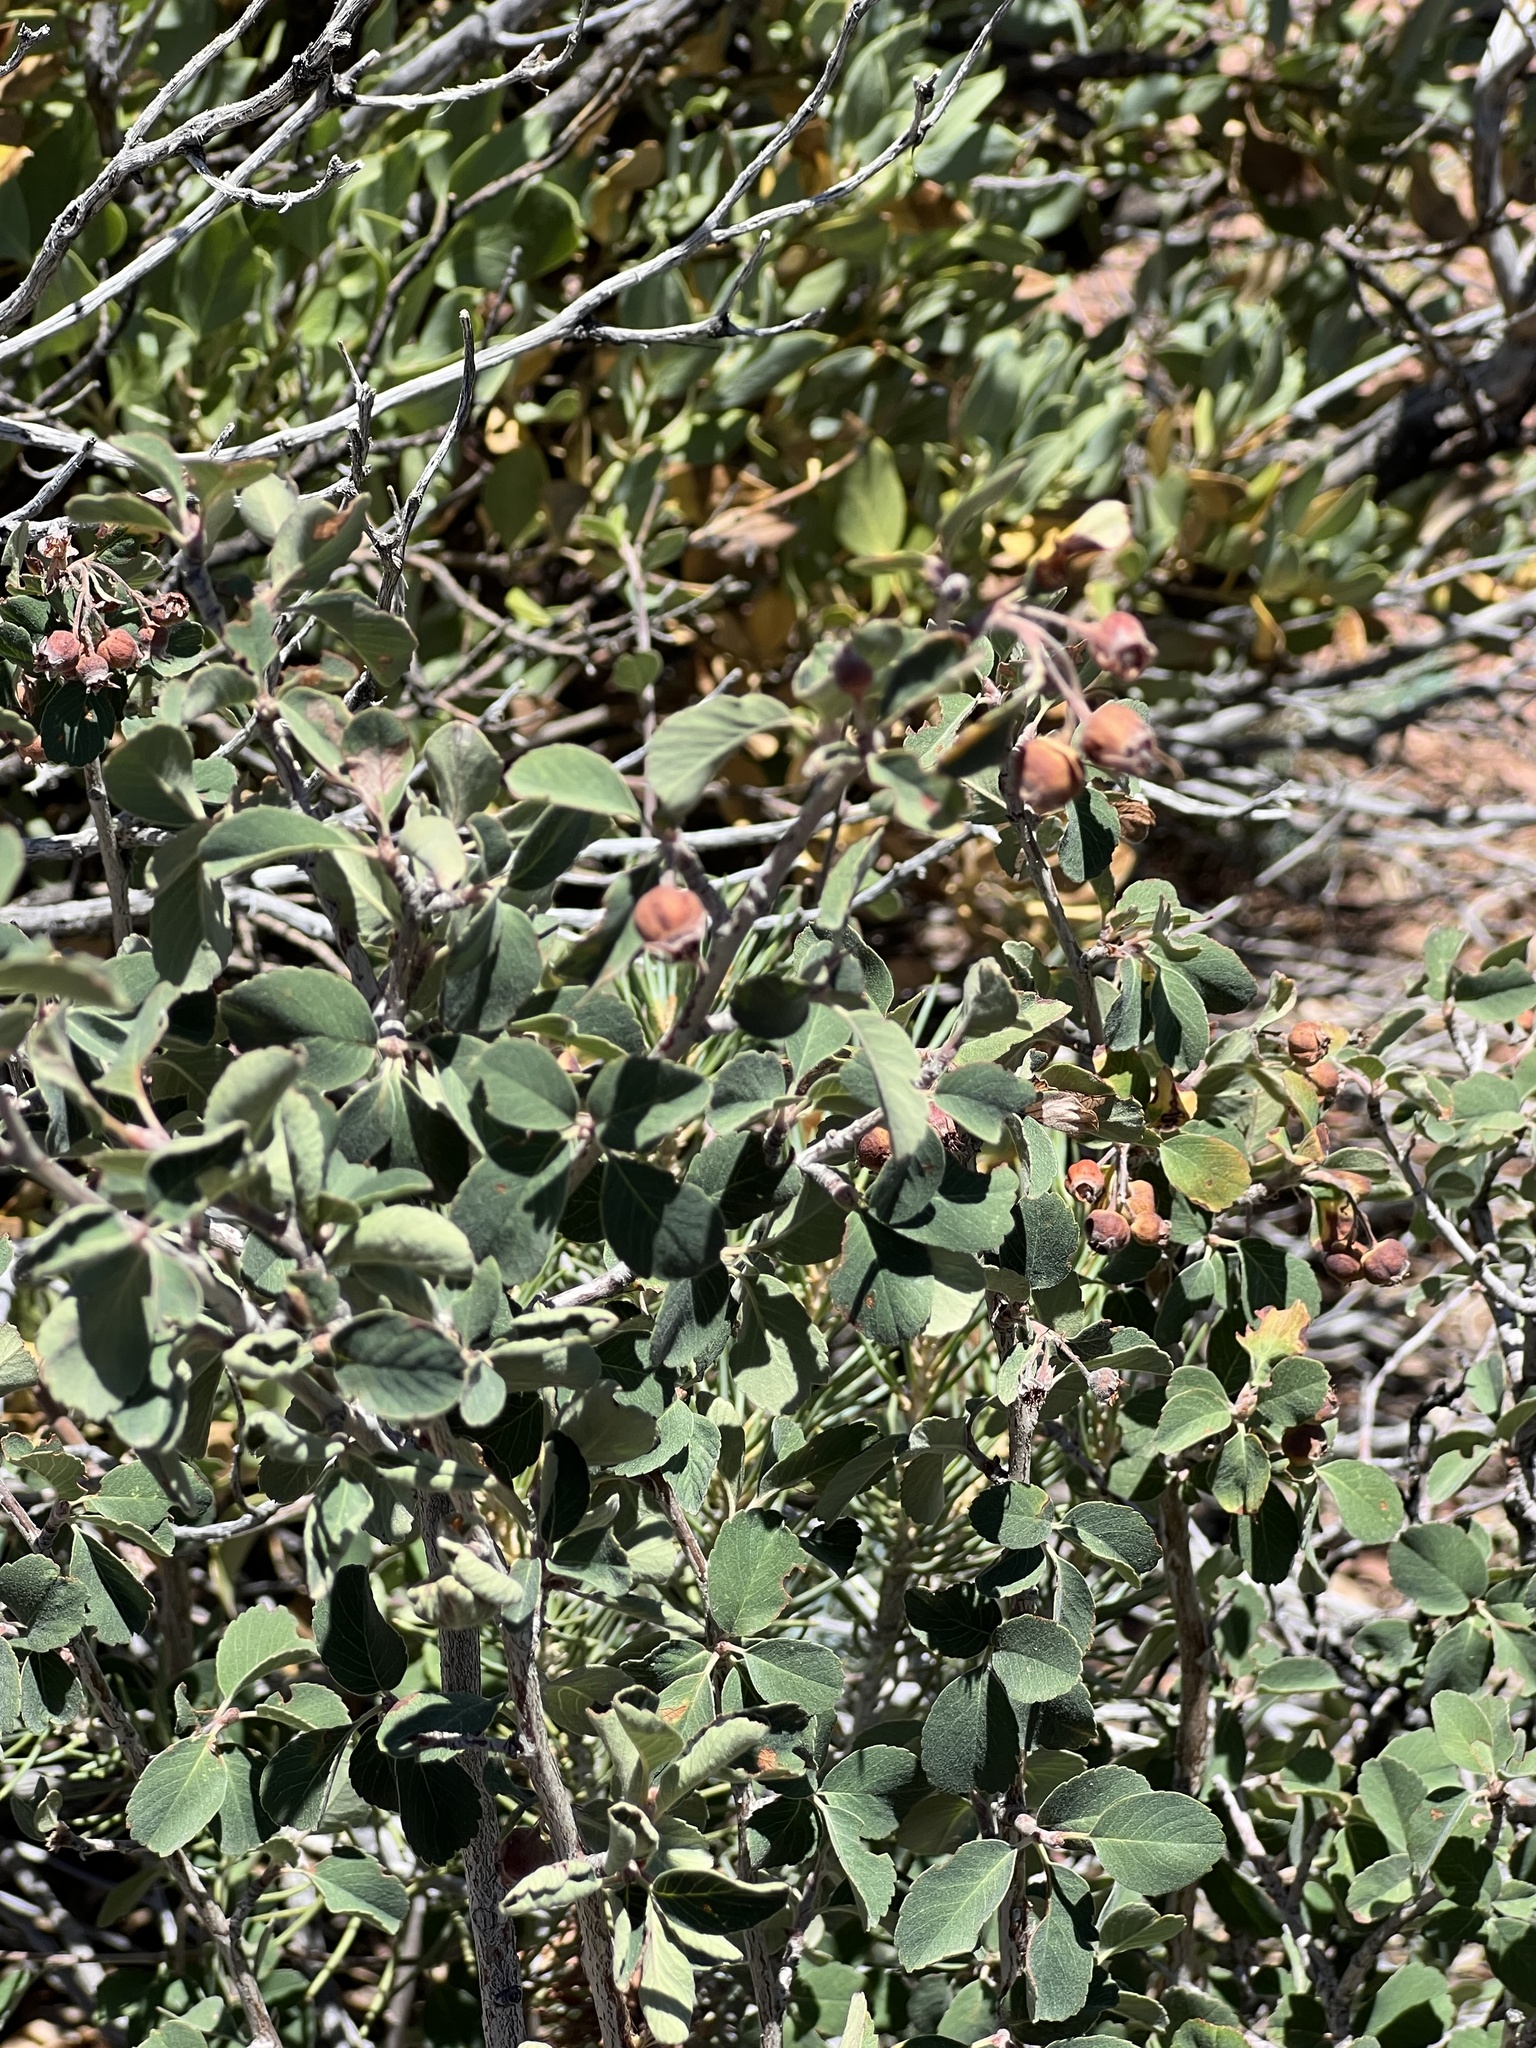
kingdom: Plantae
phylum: Tracheophyta
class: Magnoliopsida
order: Rosales
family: Rosaceae
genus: Amelanchier
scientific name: Amelanchier utahensis
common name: Utah serviceberry
